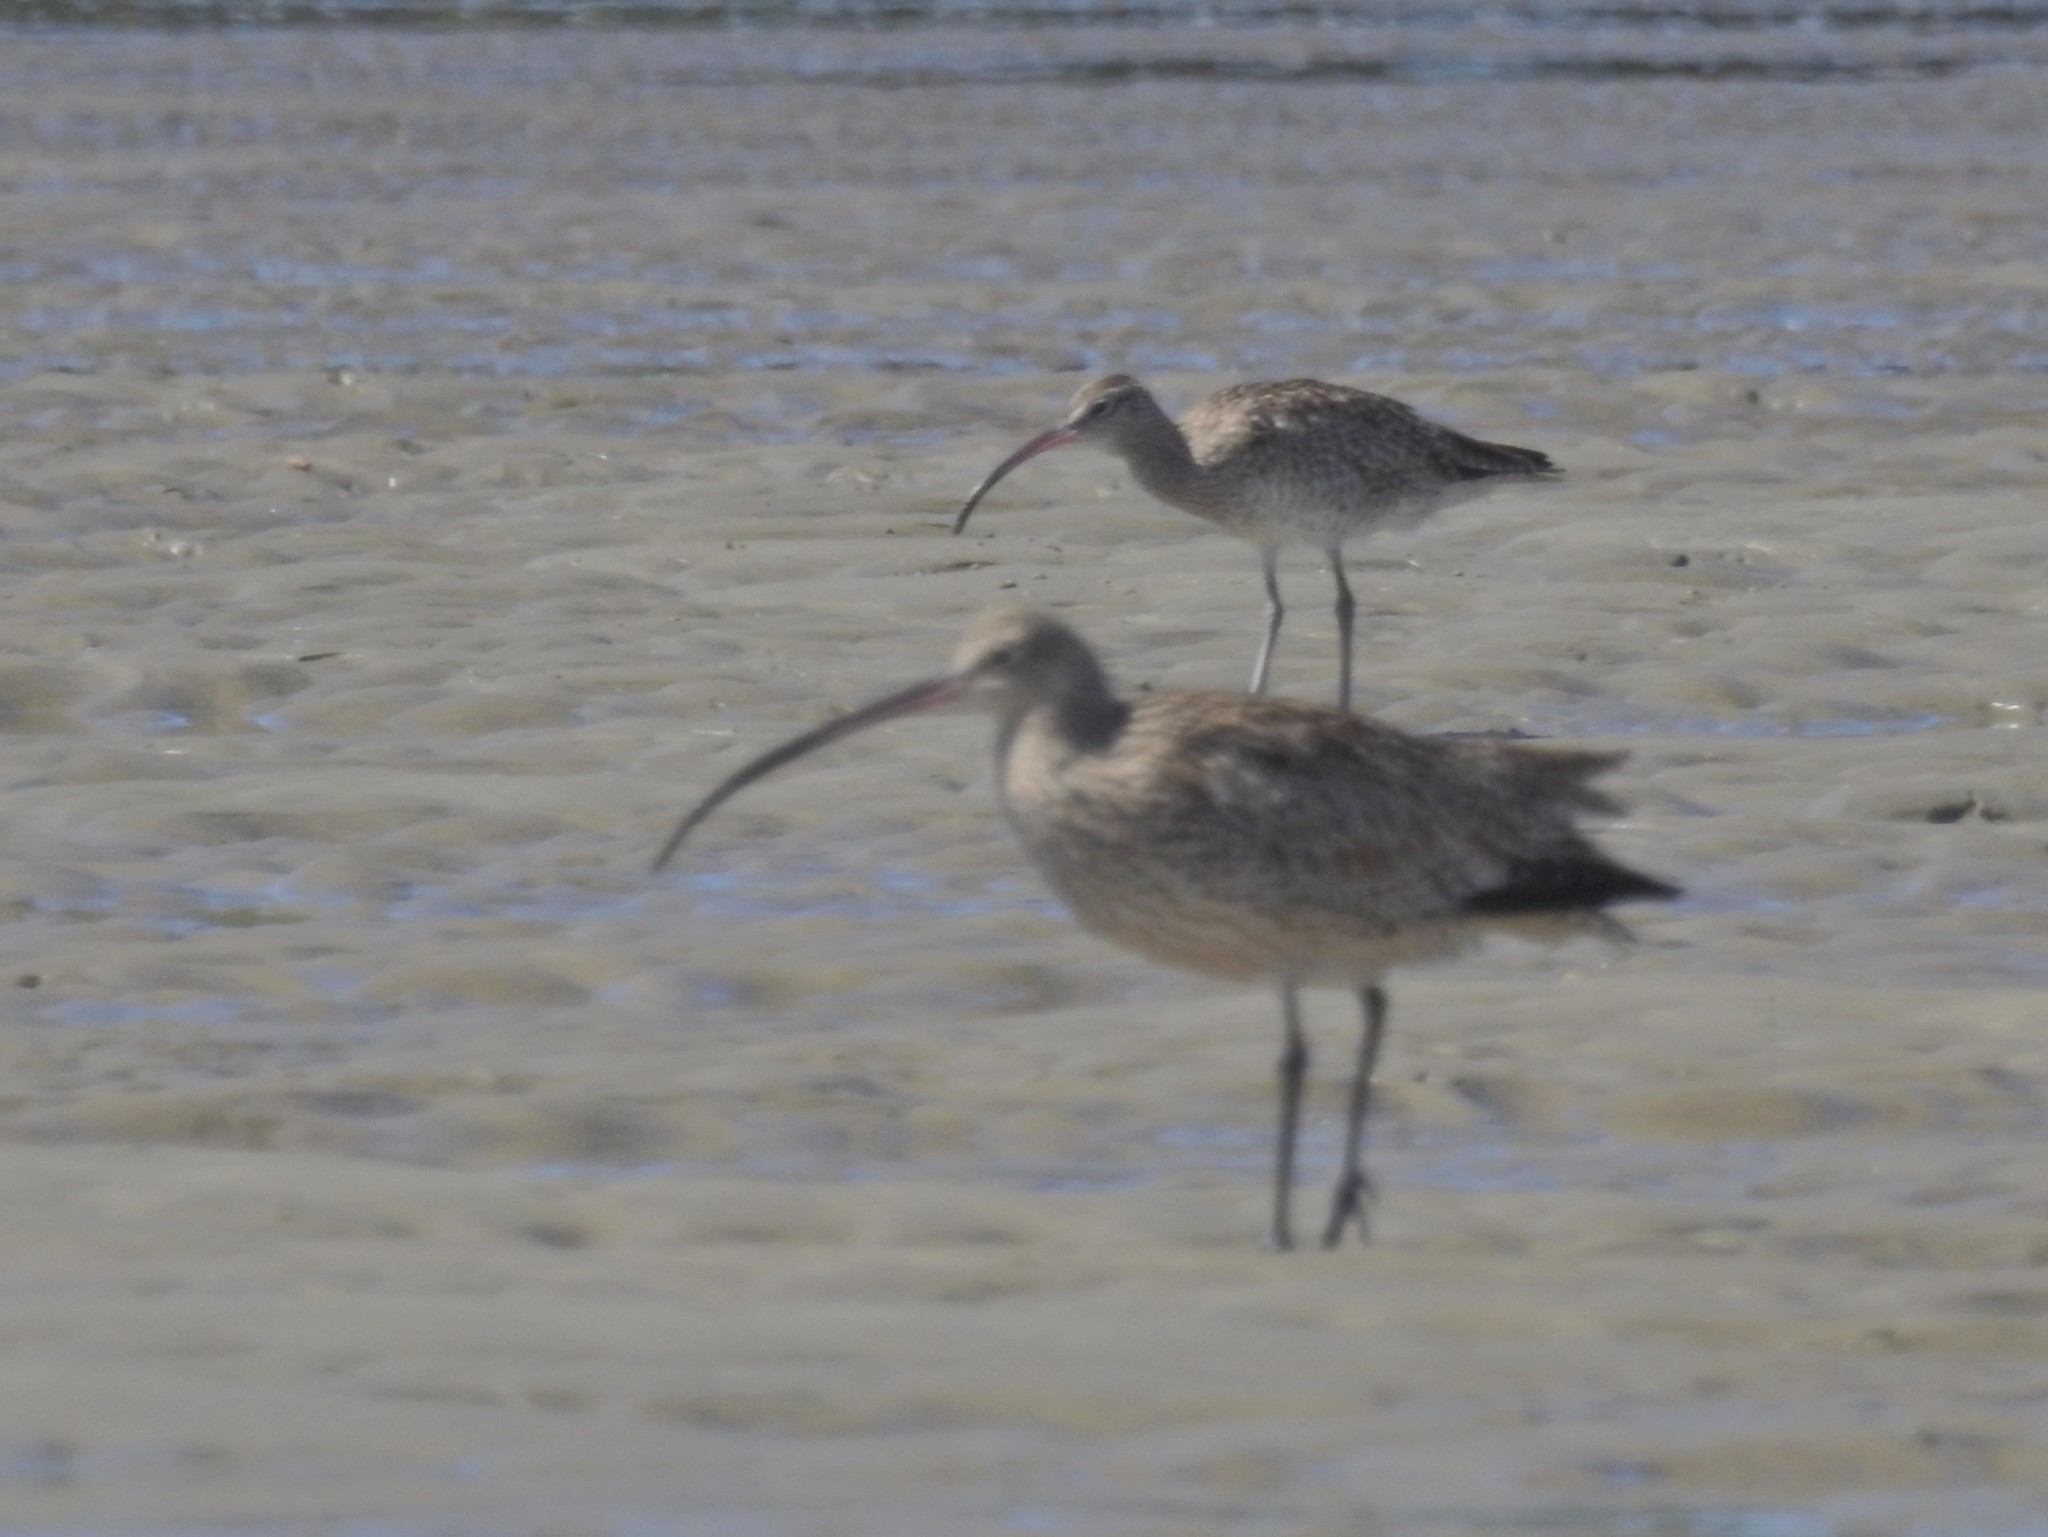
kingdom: Animalia
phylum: Chordata
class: Aves
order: Charadriiformes
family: Scolopacidae
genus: Numenius
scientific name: Numenius phaeopus
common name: Whimbrel
